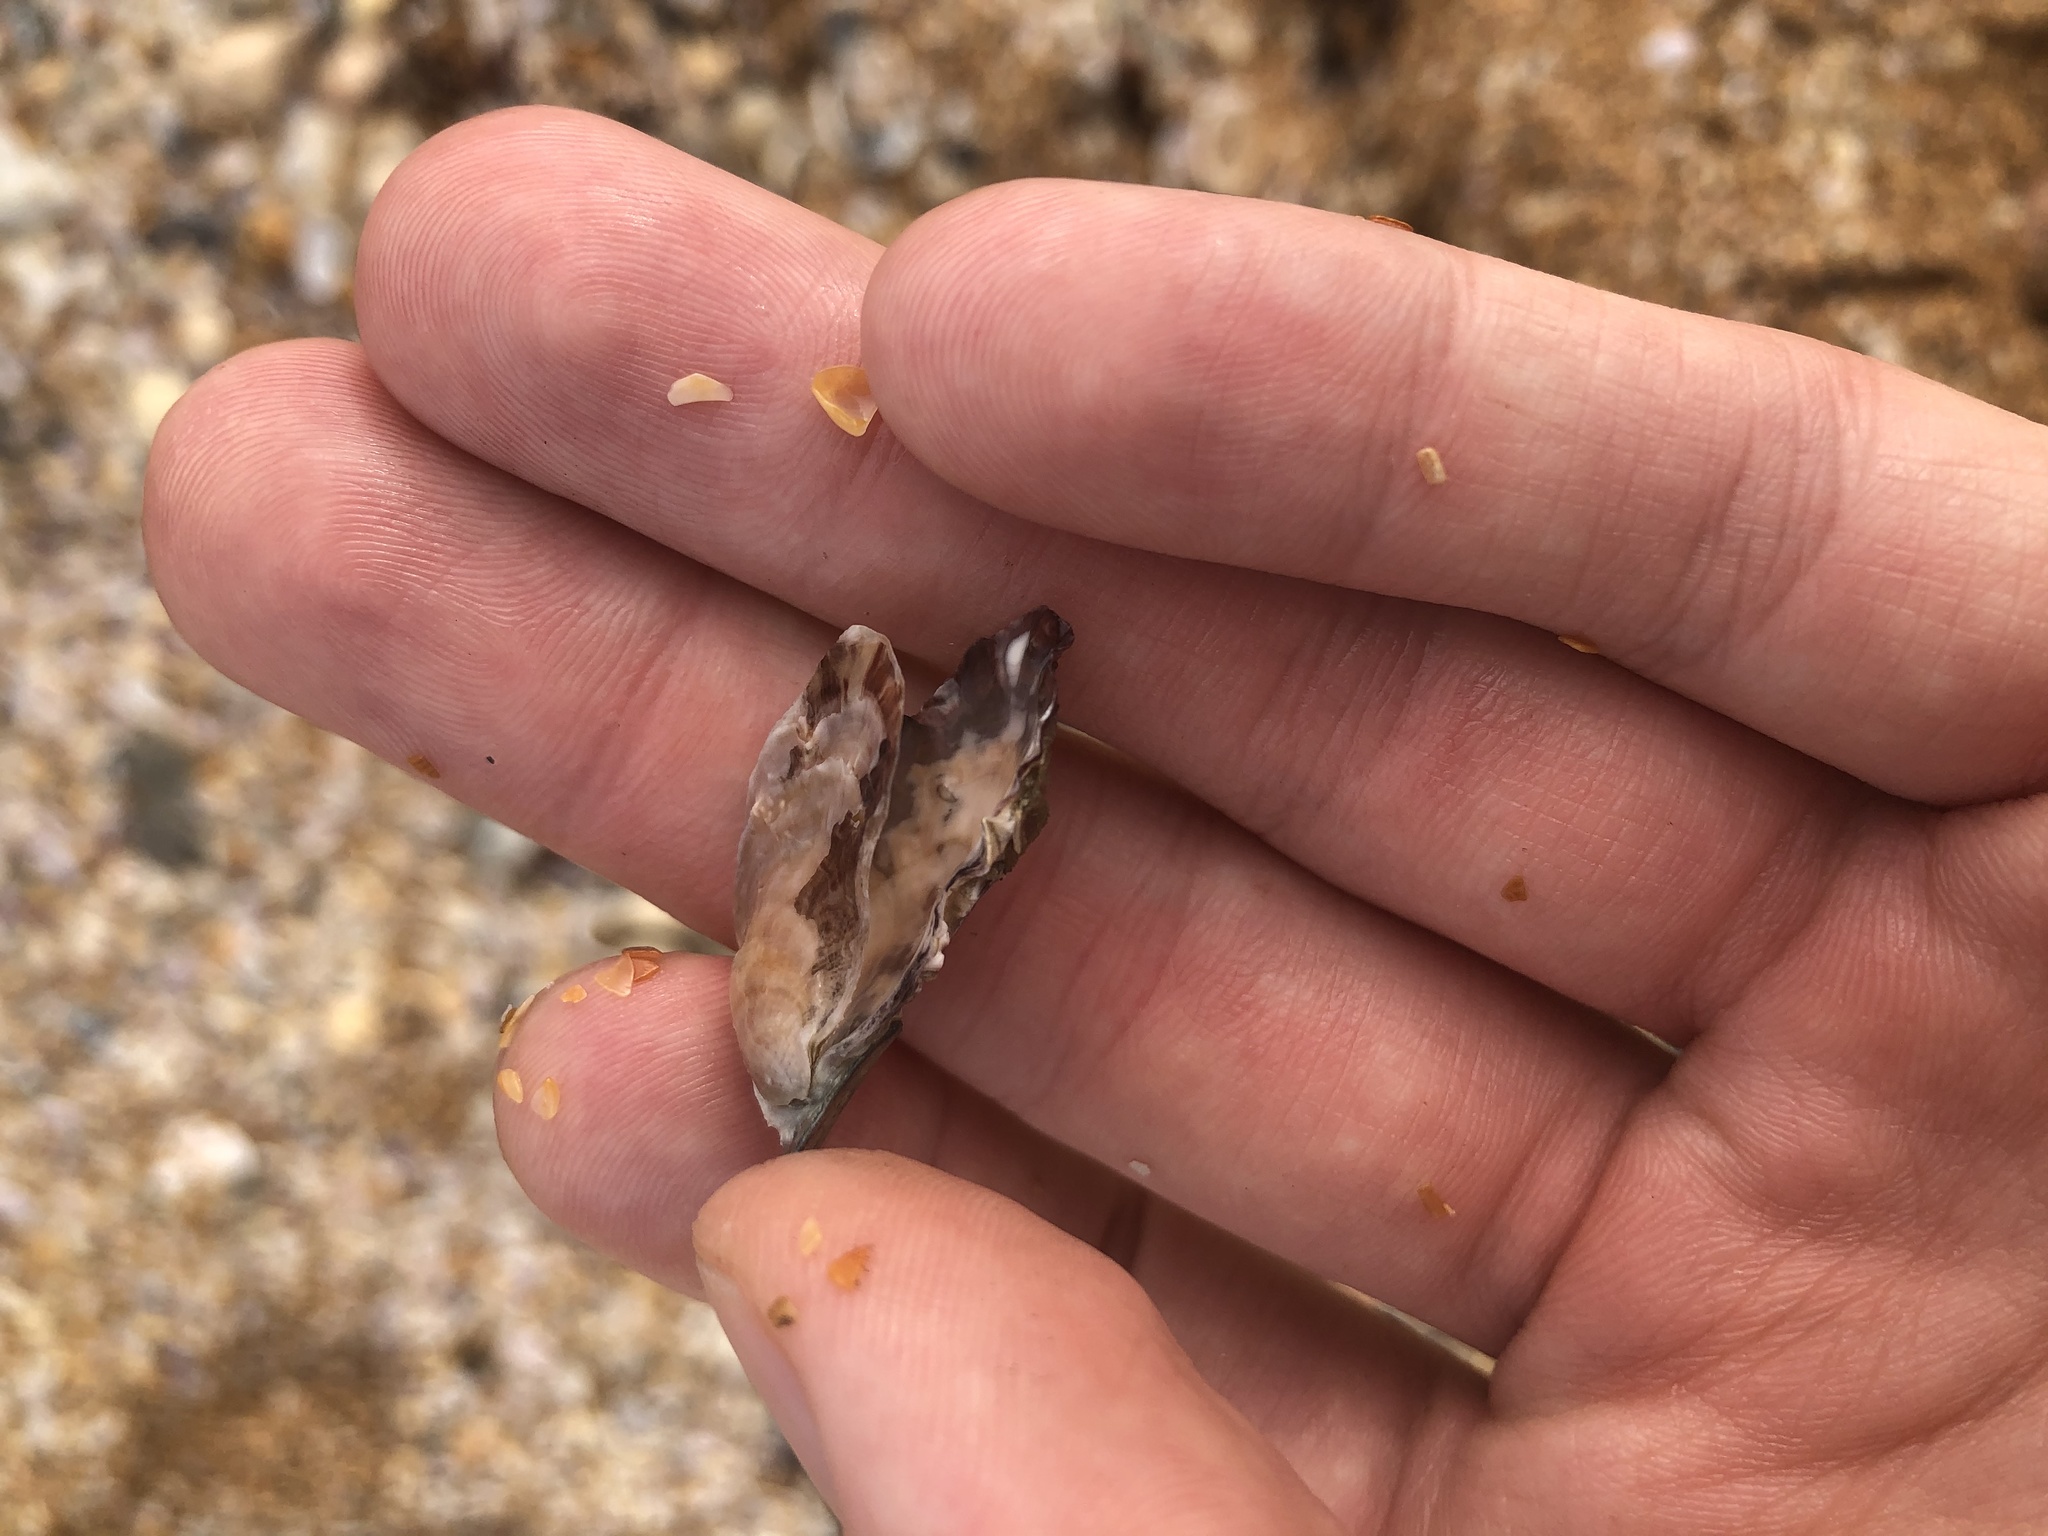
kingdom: Animalia
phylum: Mollusca
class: Bivalvia
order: Ostreida
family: Ostreidae
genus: Crassostrea
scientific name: Crassostrea virginica
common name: American oyster
